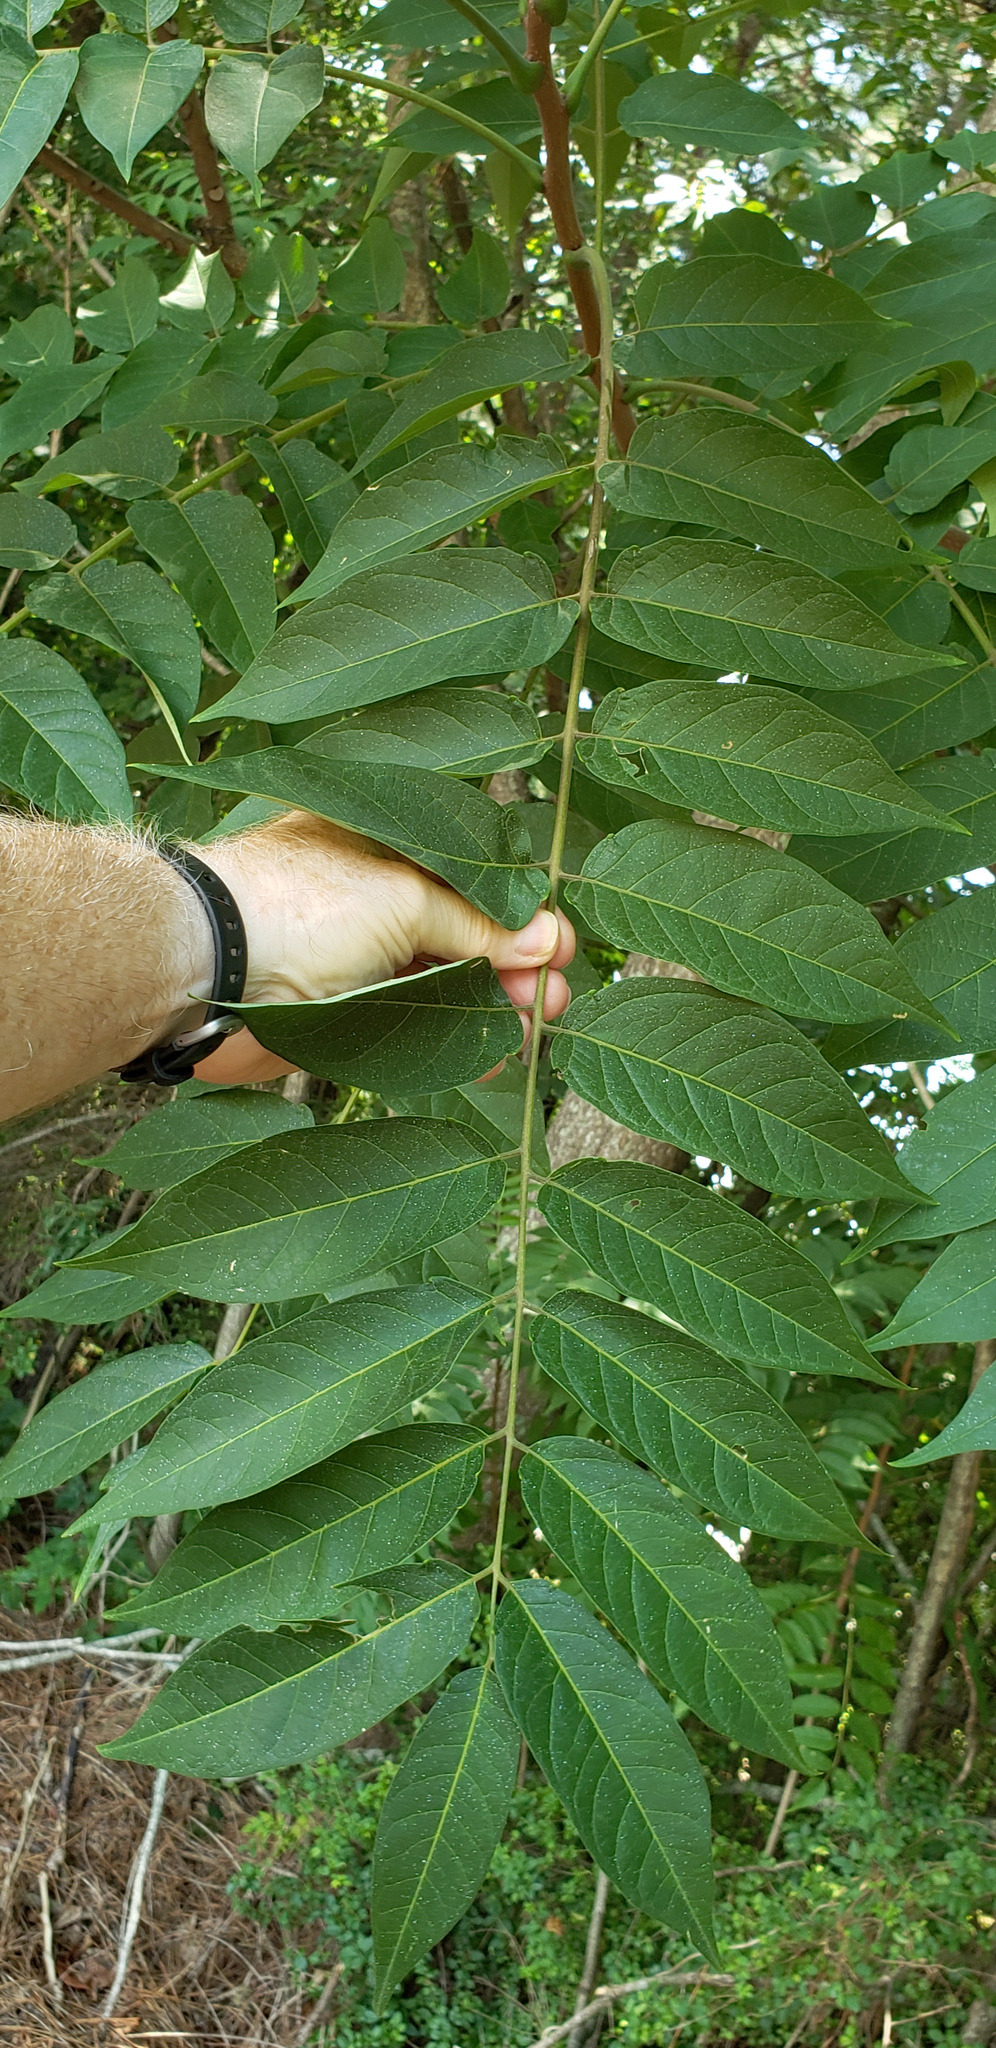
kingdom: Plantae
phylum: Tracheophyta
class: Magnoliopsida
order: Sapindales
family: Simaroubaceae
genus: Ailanthus
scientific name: Ailanthus altissima
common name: Tree-of-heaven
